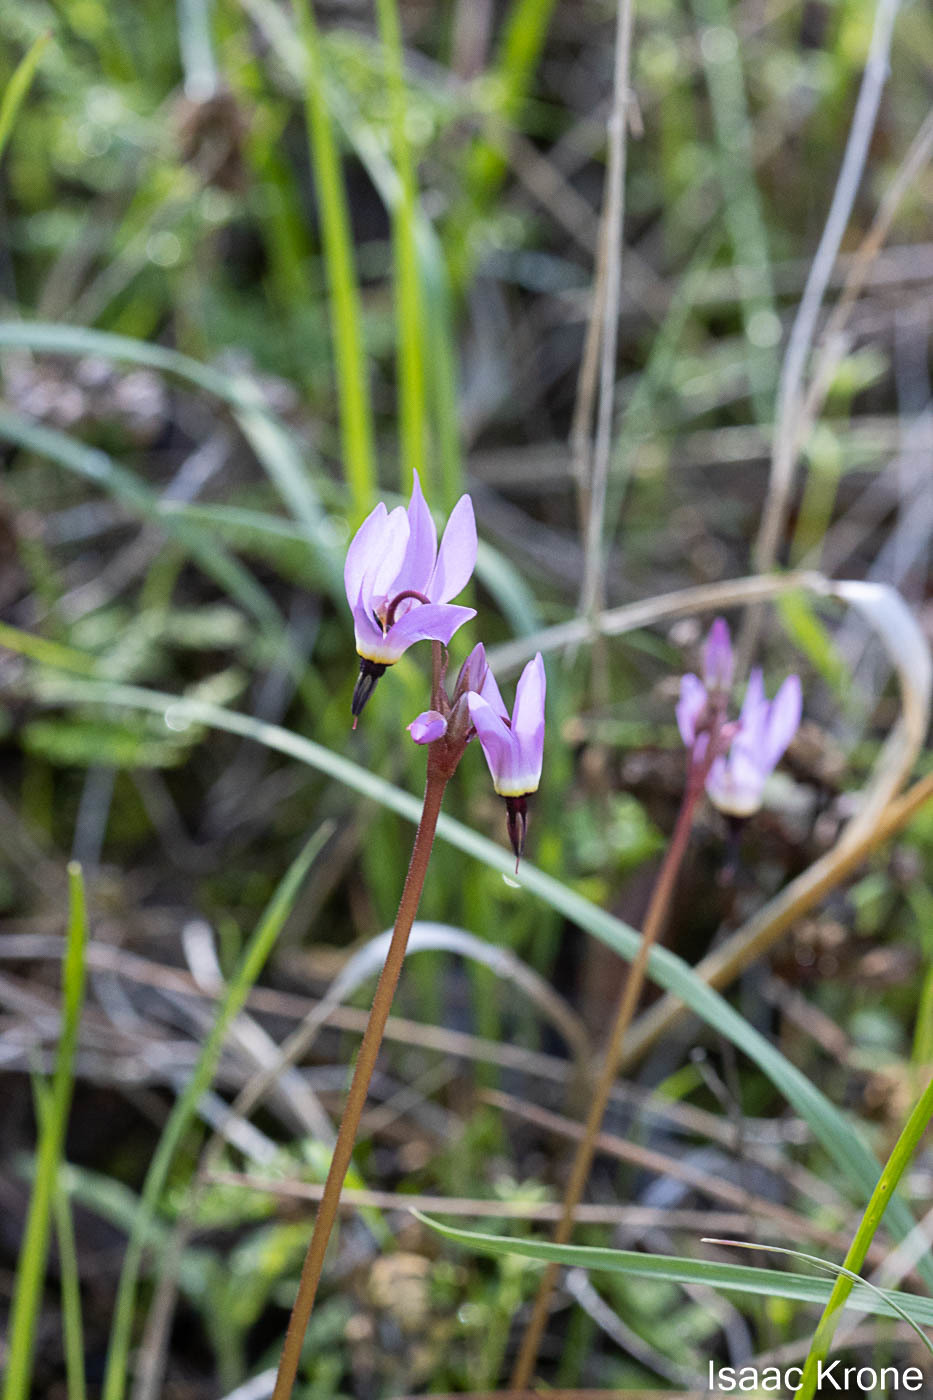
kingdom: Plantae
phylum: Tracheophyta
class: Magnoliopsida
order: Ericales
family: Primulaceae
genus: Dodecatheon
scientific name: Dodecatheon hendersonii
